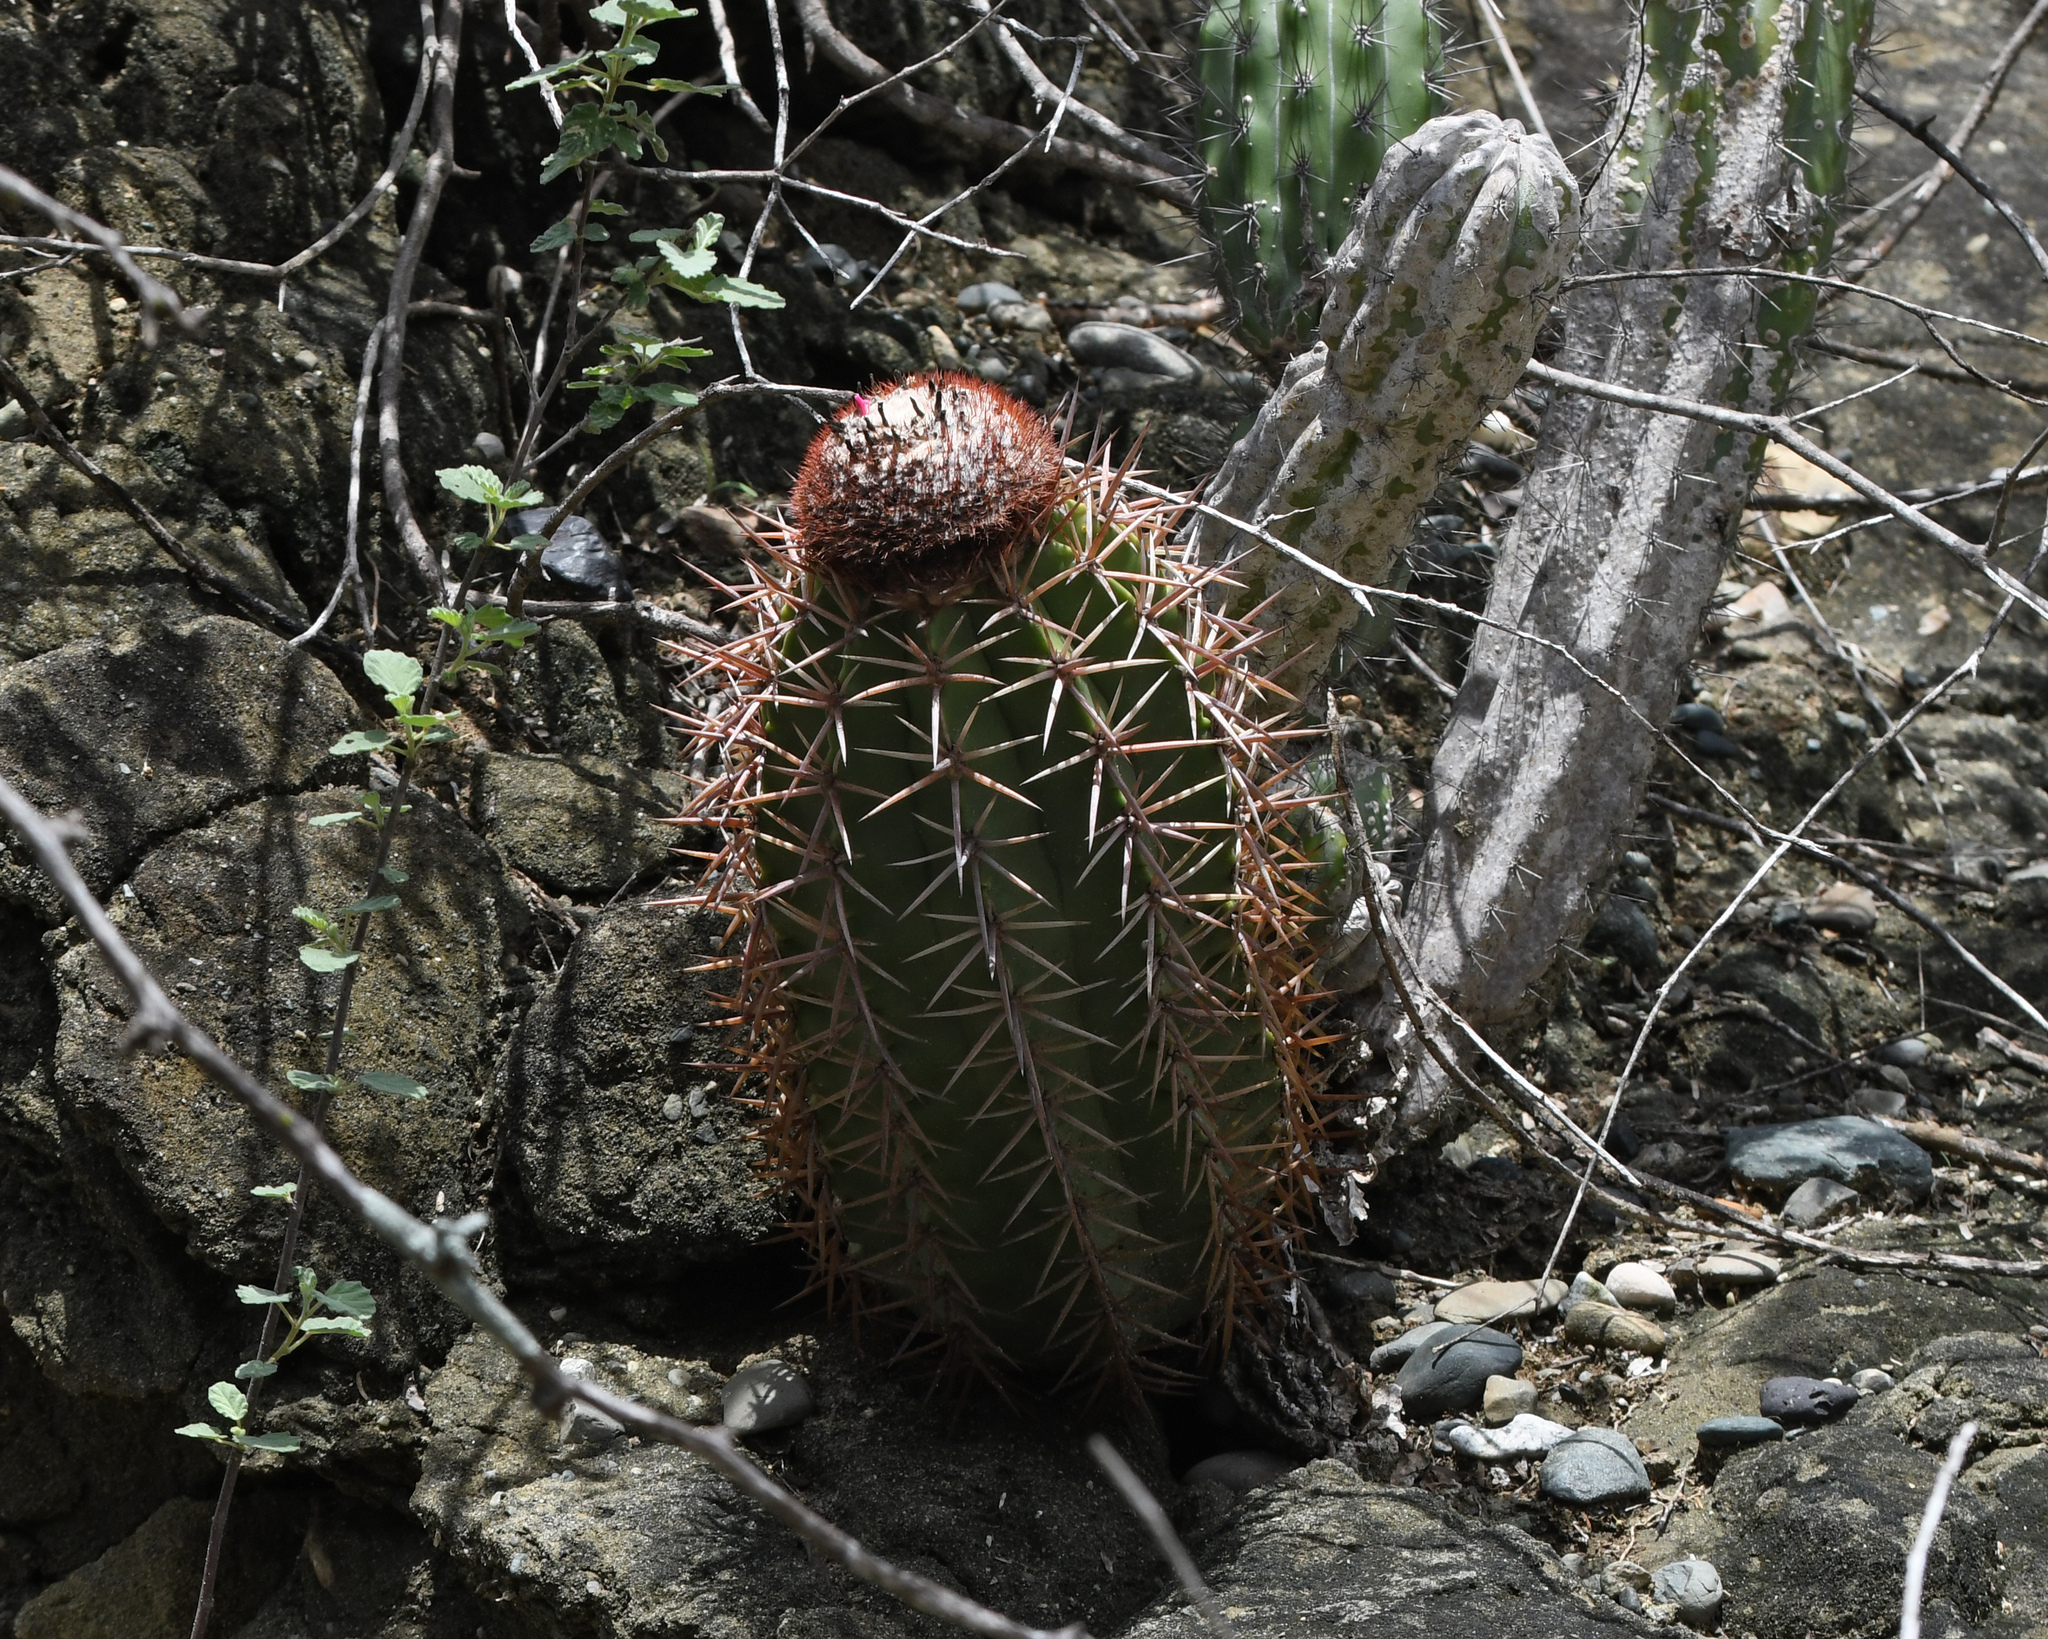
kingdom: Plantae
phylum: Tracheophyta
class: Magnoliopsida
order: Caryophyllales
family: Cactaceae
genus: Melocactus
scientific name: Melocactus lemairei
